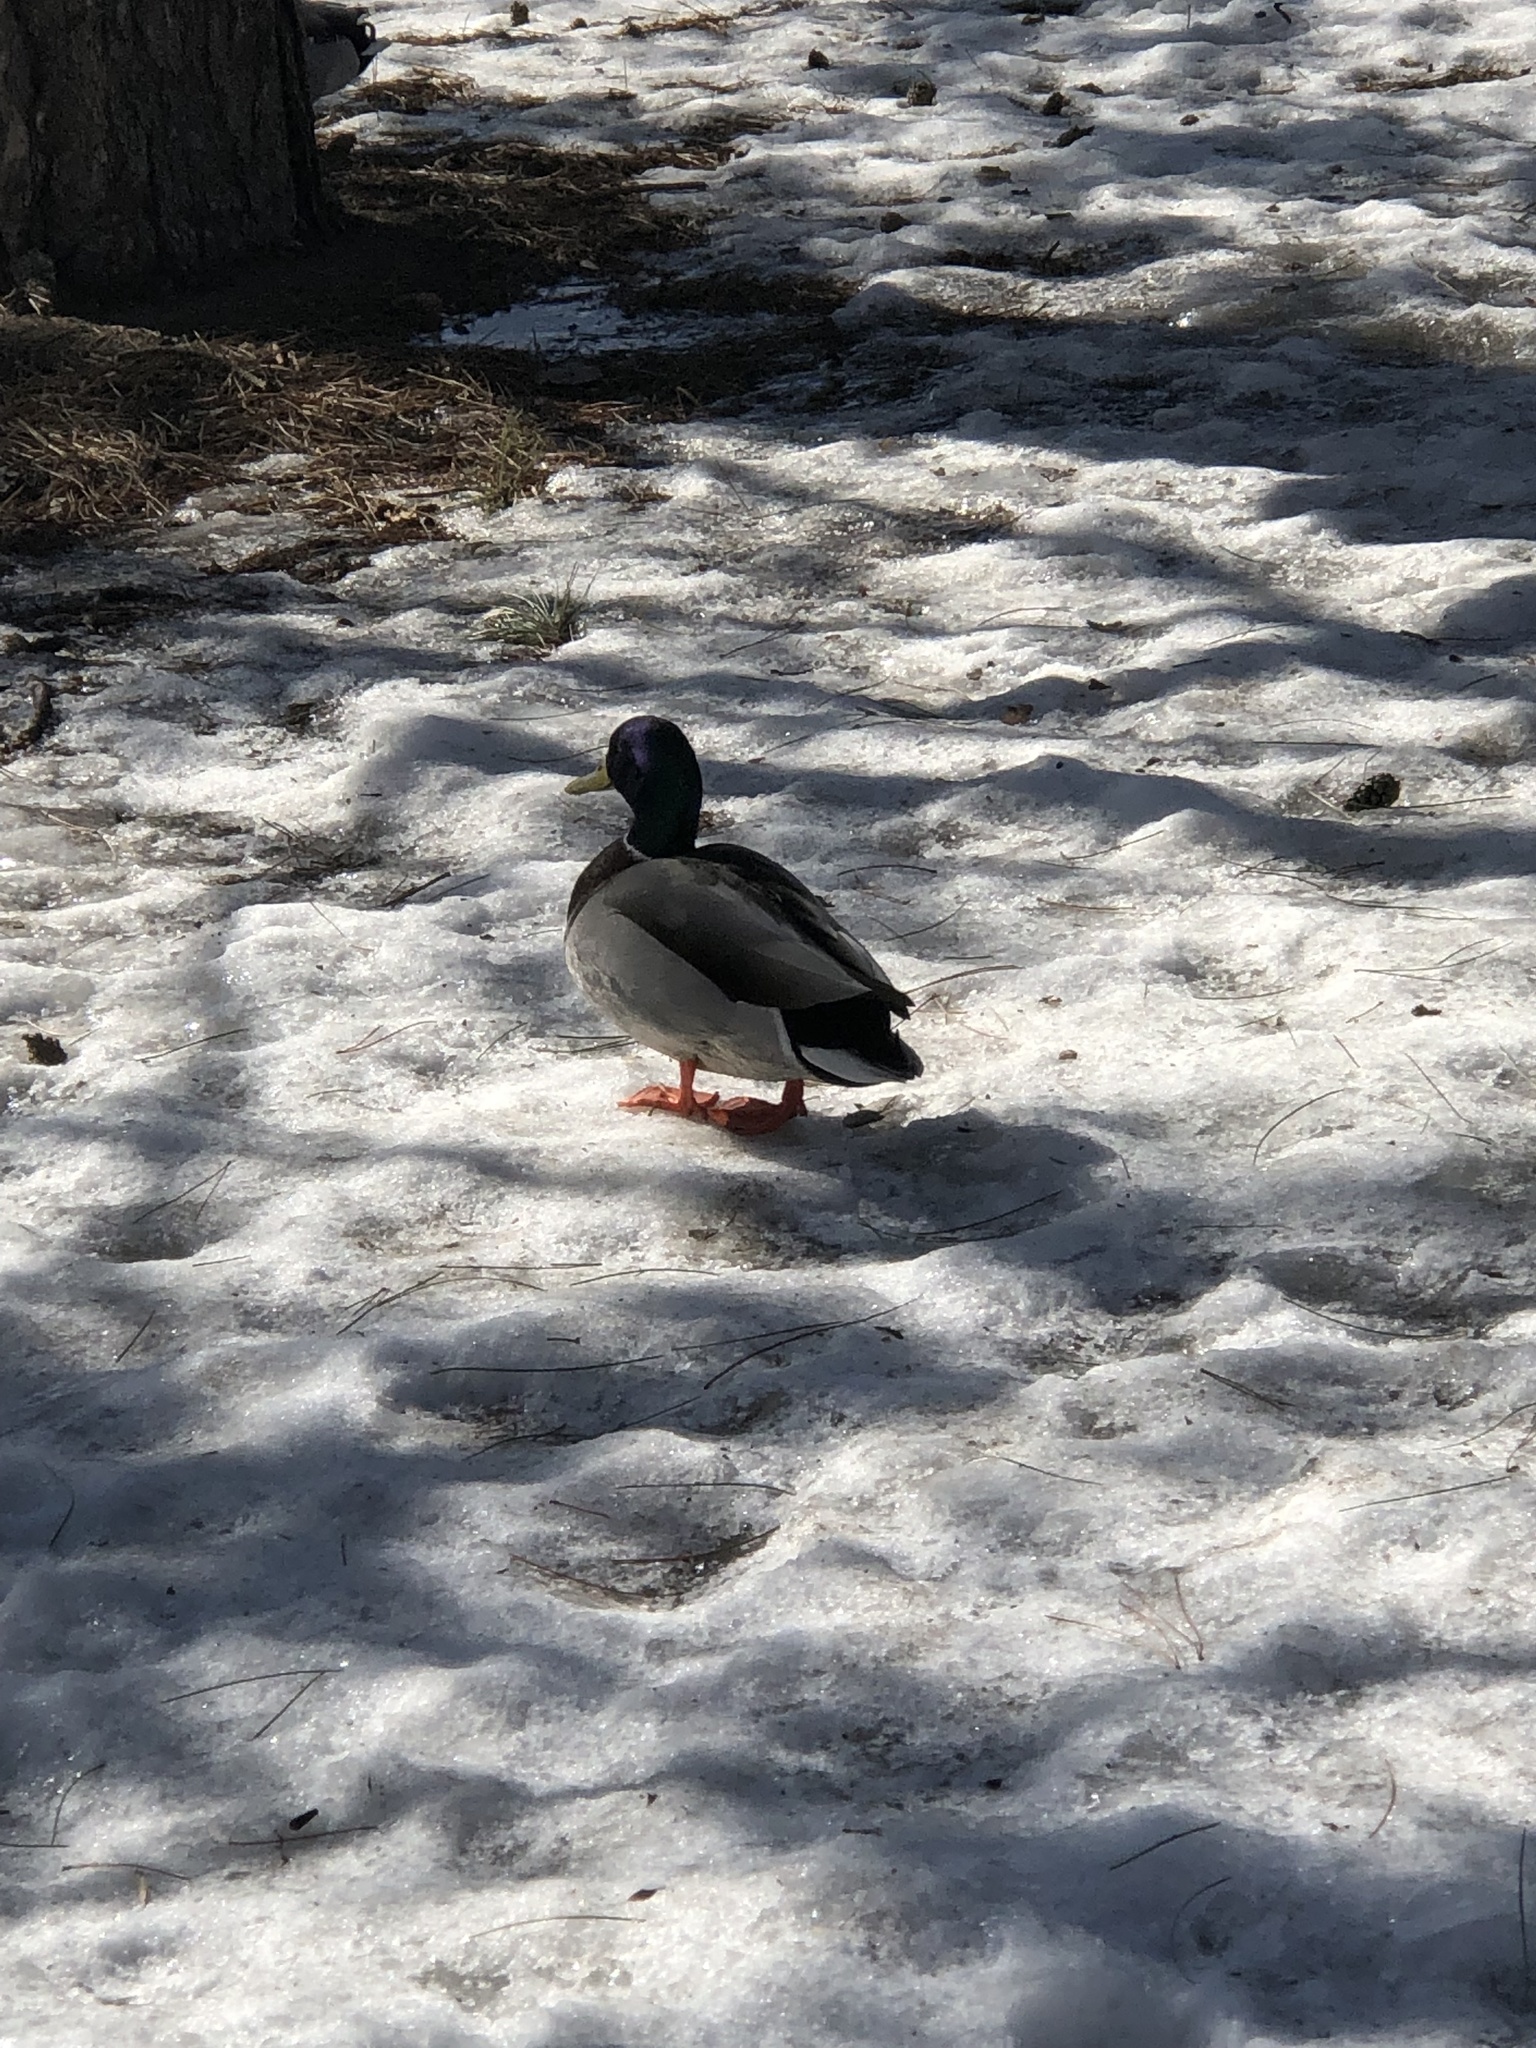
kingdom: Animalia
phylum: Chordata
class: Aves
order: Anseriformes
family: Anatidae
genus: Anas
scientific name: Anas platyrhynchos
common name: Mallard
